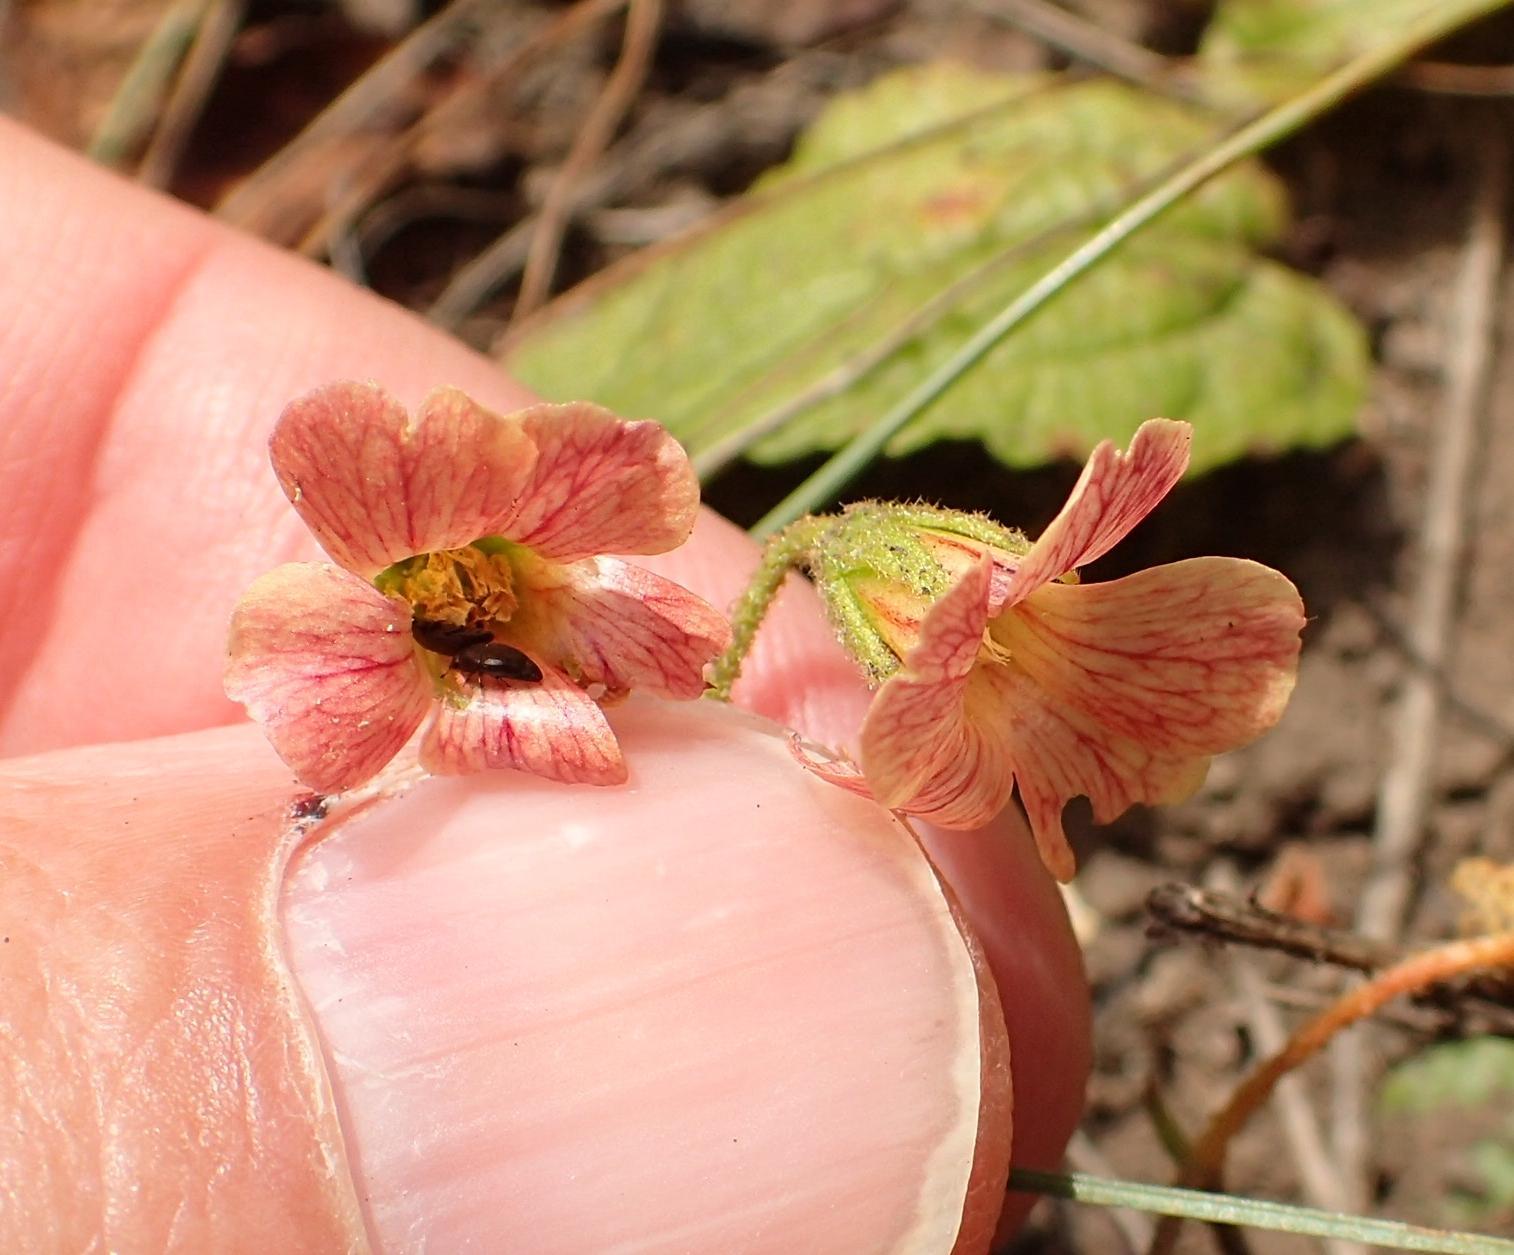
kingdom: Plantae
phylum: Tracheophyta
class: Magnoliopsida
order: Malvales
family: Malvaceae
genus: Hermannia
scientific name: Hermannia woodii
